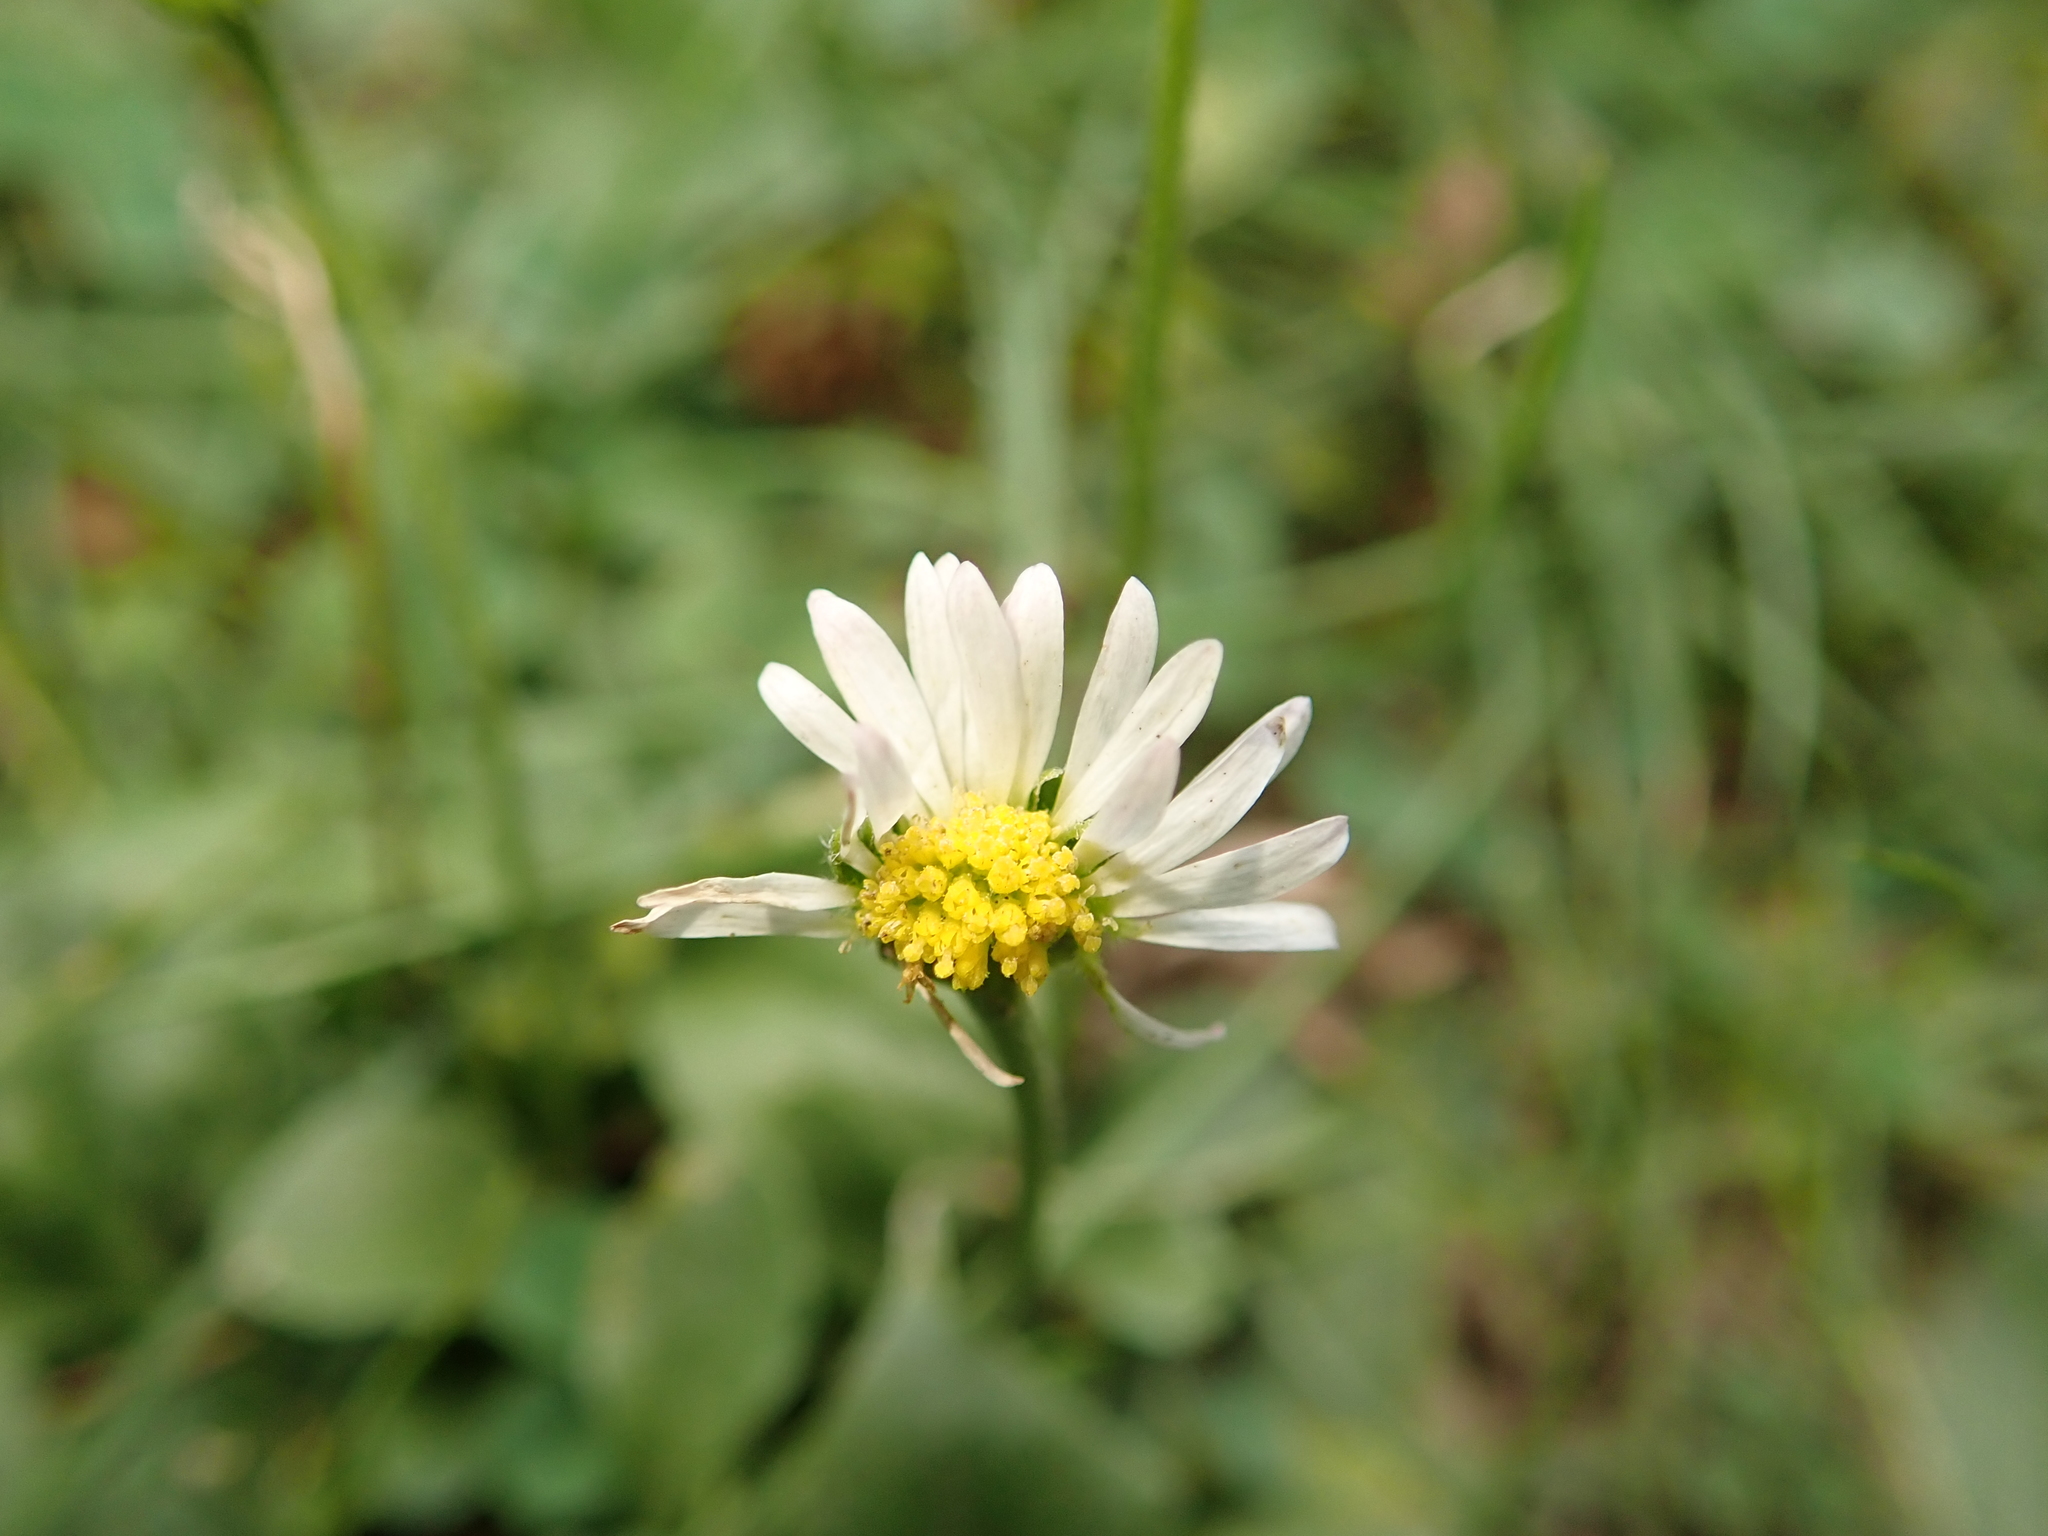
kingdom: Plantae
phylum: Tracheophyta
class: Magnoliopsida
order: Asterales
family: Asteraceae
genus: Bellis
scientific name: Bellis perennis
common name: Lawndaisy
